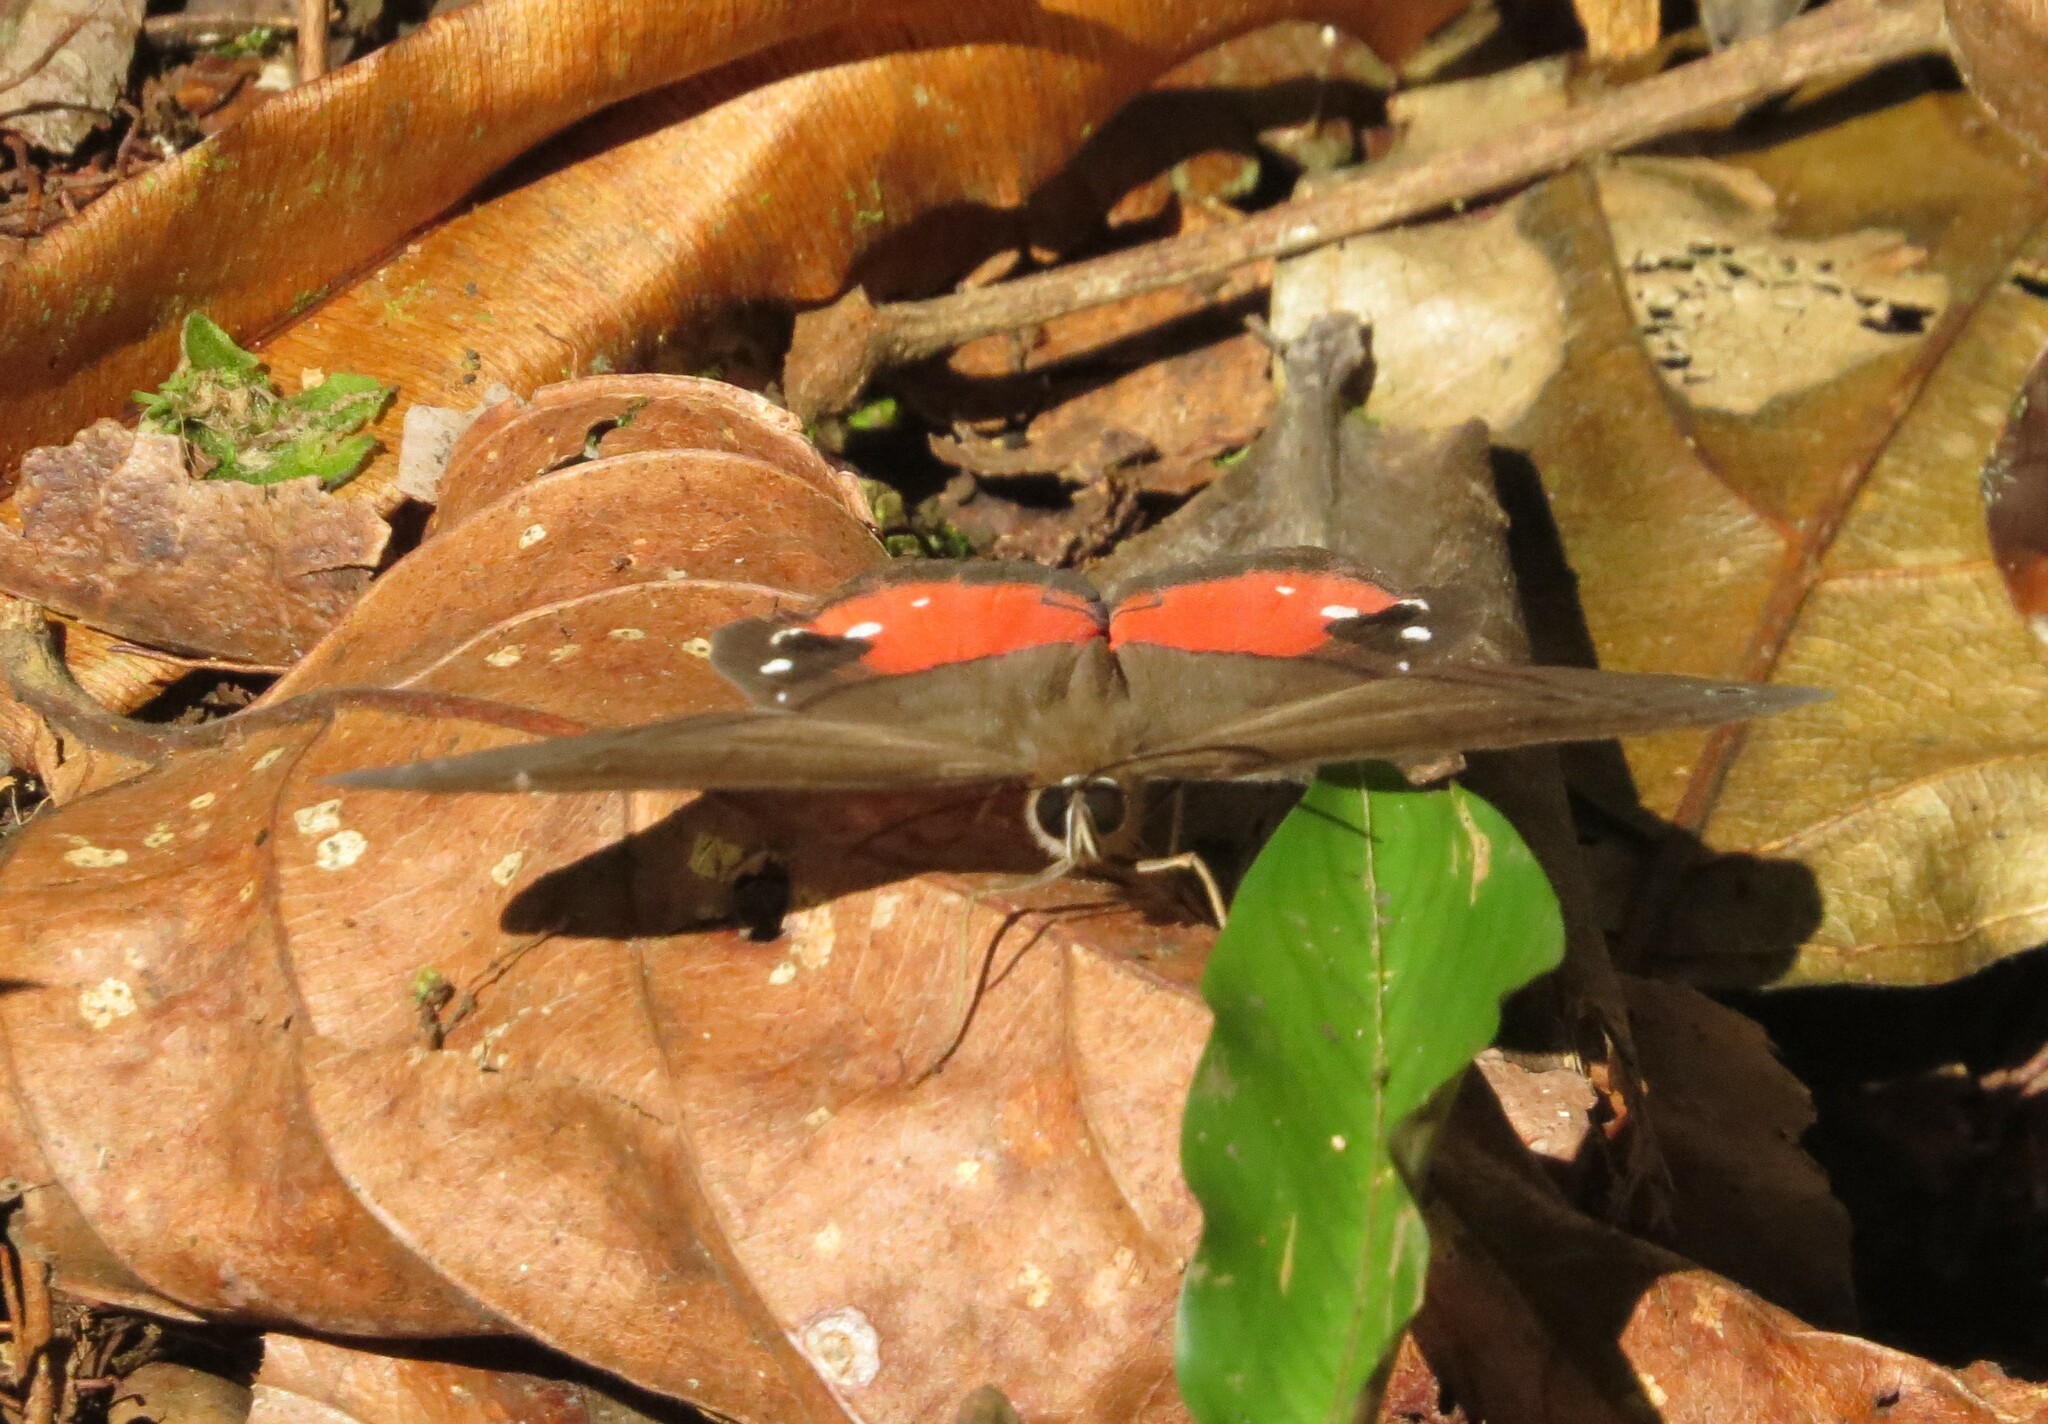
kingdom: Animalia
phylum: Arthropoda
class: Insecta
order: Lepidoptera
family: Nymphalidae
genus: Pierella
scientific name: Pierella helvina
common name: Red-washed satyr
